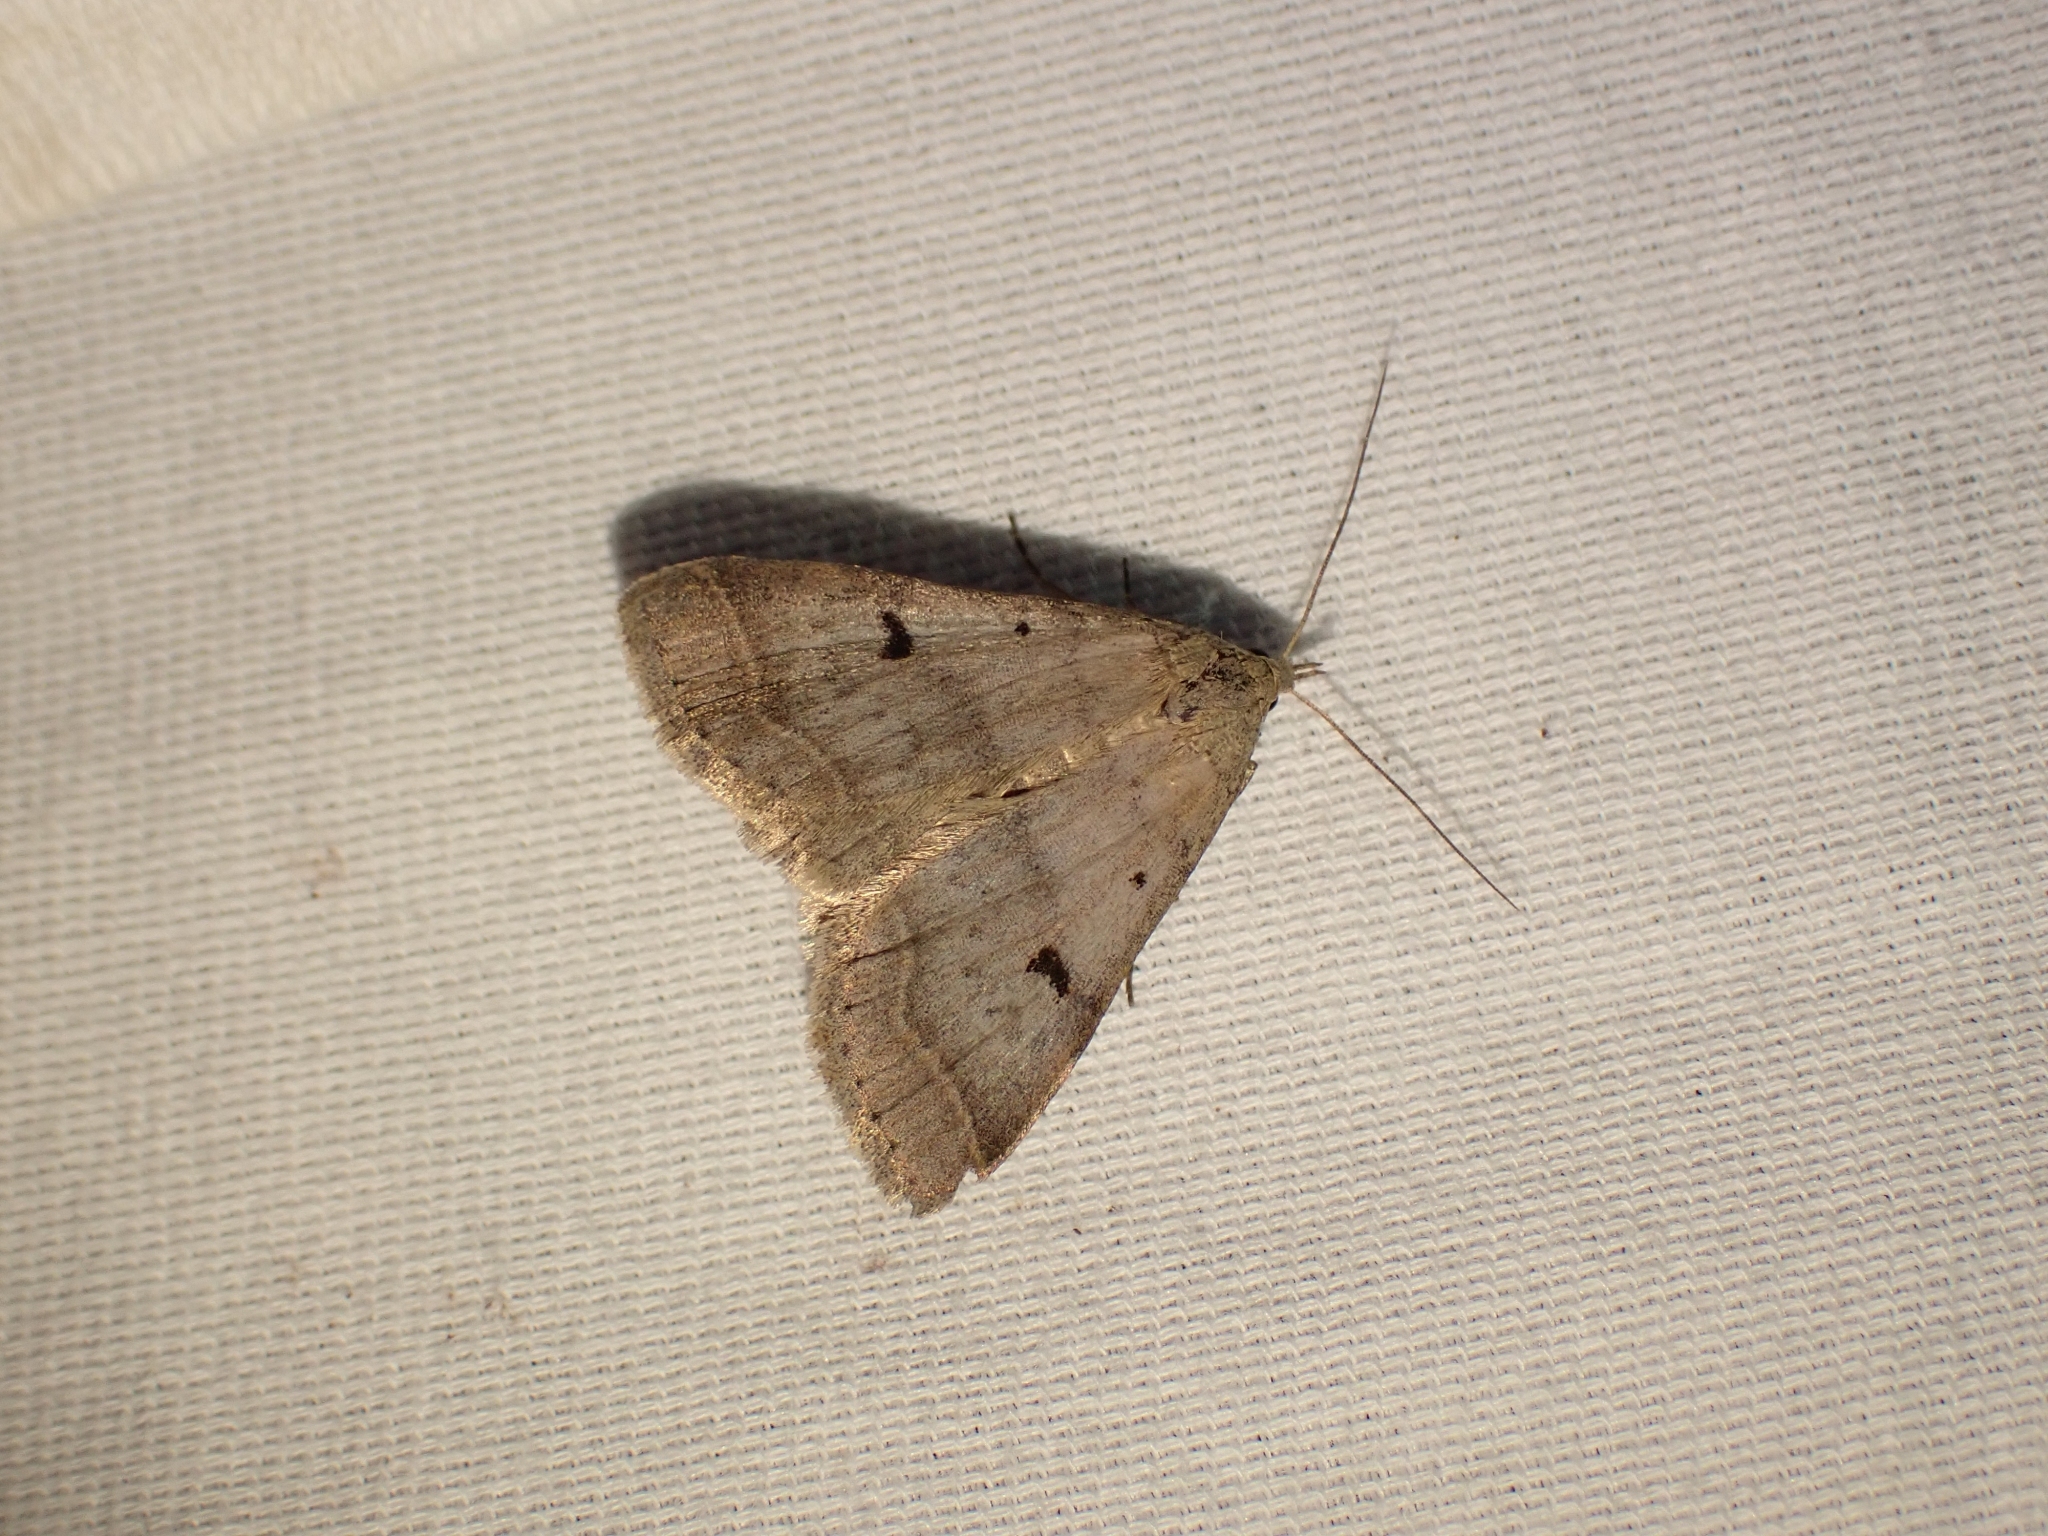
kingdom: Animalia
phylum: Arthropoda
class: Insecta
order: Lepidoptera
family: Erebidae
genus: Bleptina
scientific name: Bleptina caradrinalis
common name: Bent-winged owlet
